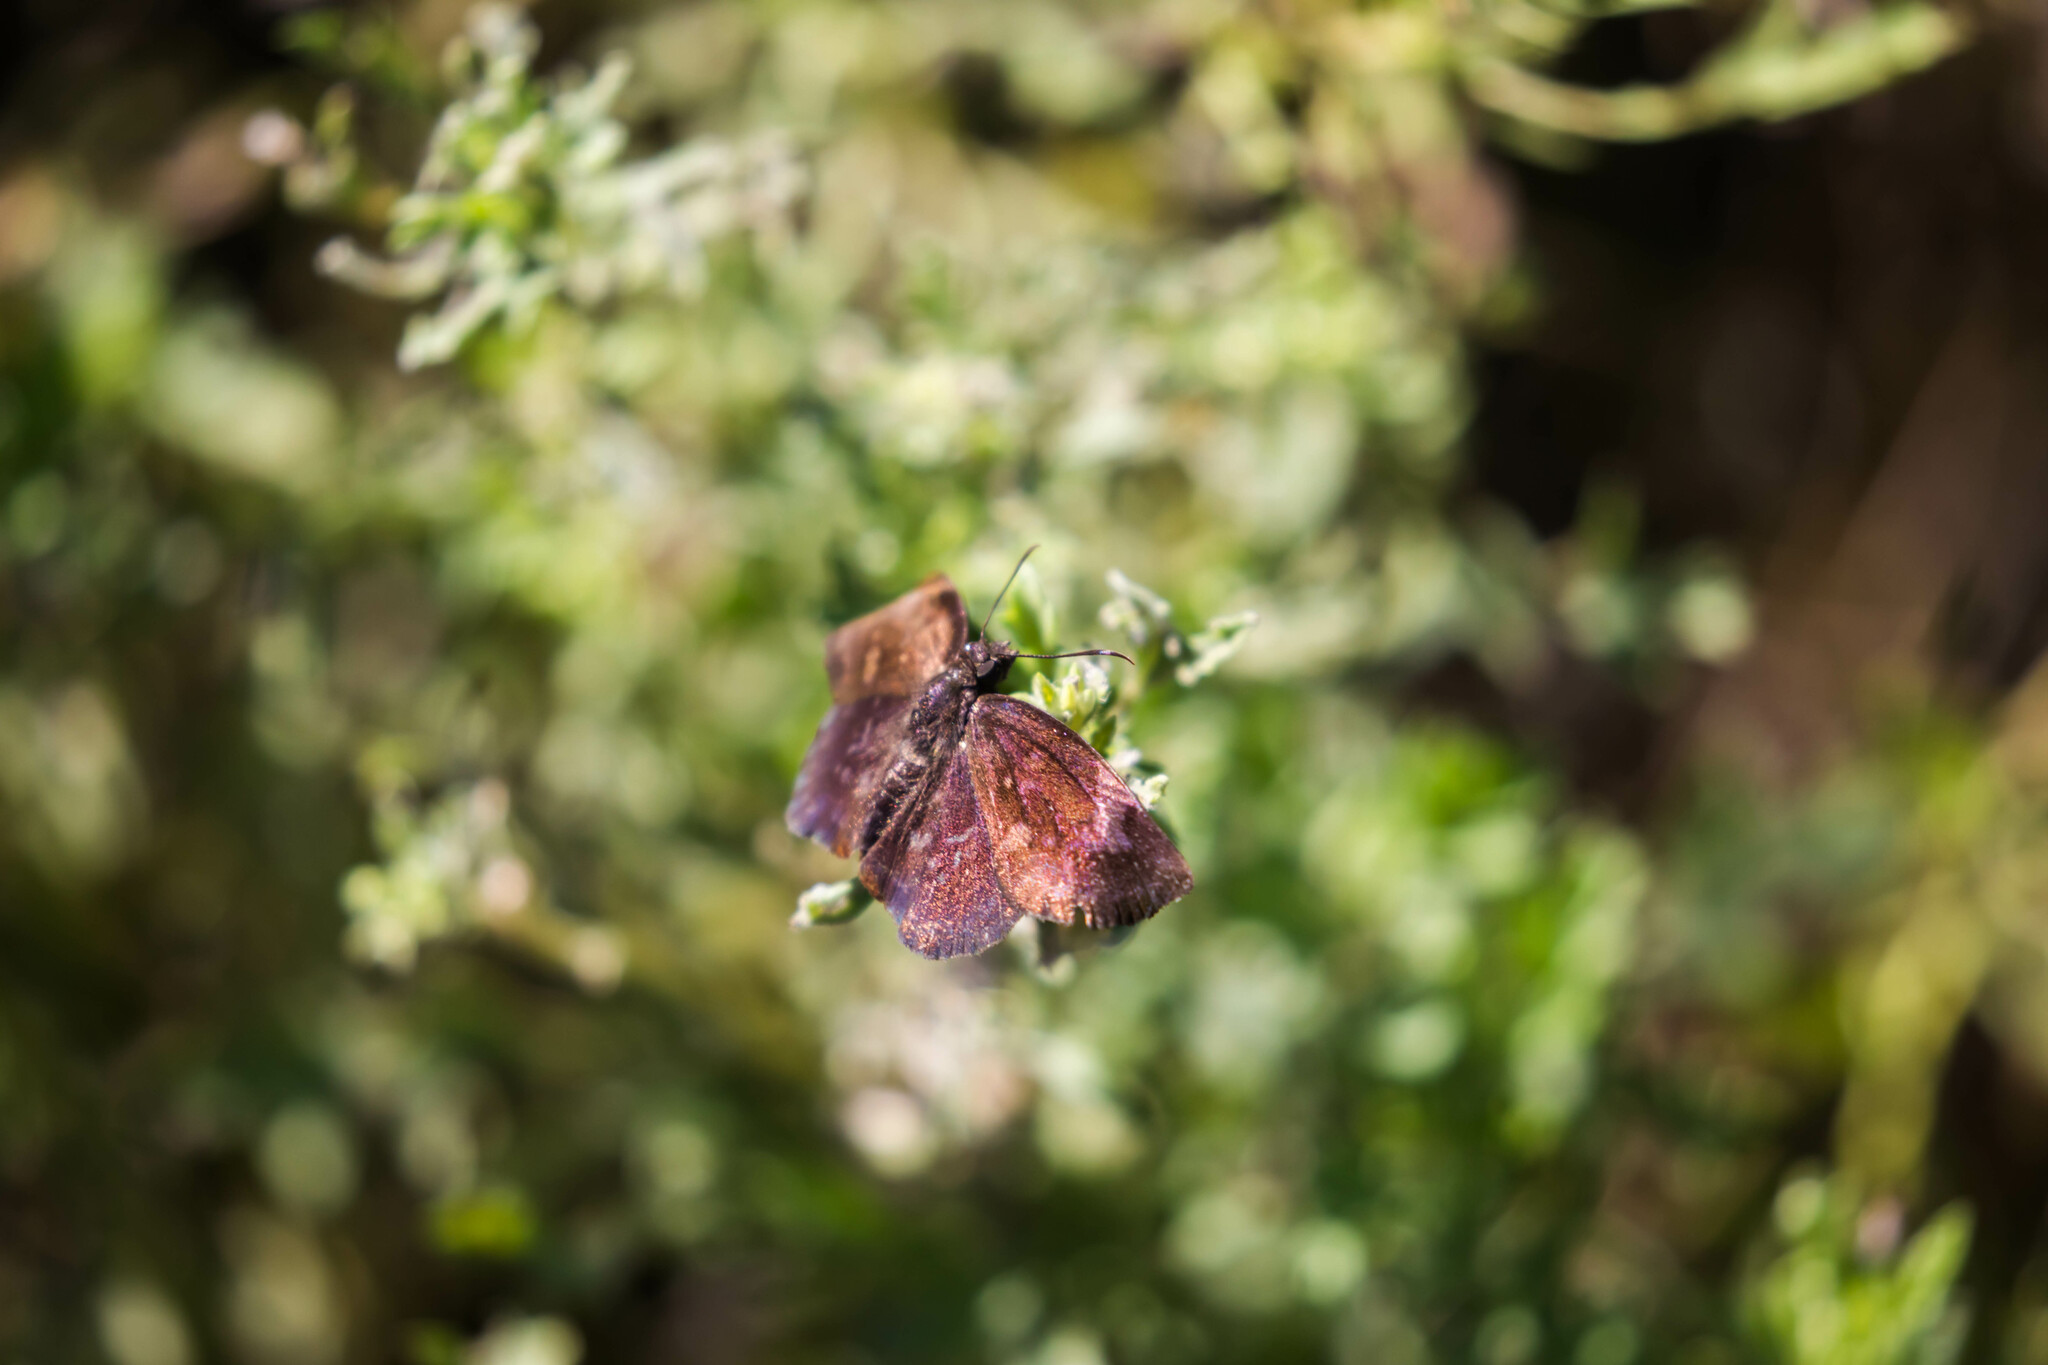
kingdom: Animalia
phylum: Arthropoda
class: Insecta
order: Lepidoptera
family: Hesperiidae
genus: Achlyodes
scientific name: Achlyodes thraso
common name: Sickle-winged skipper
